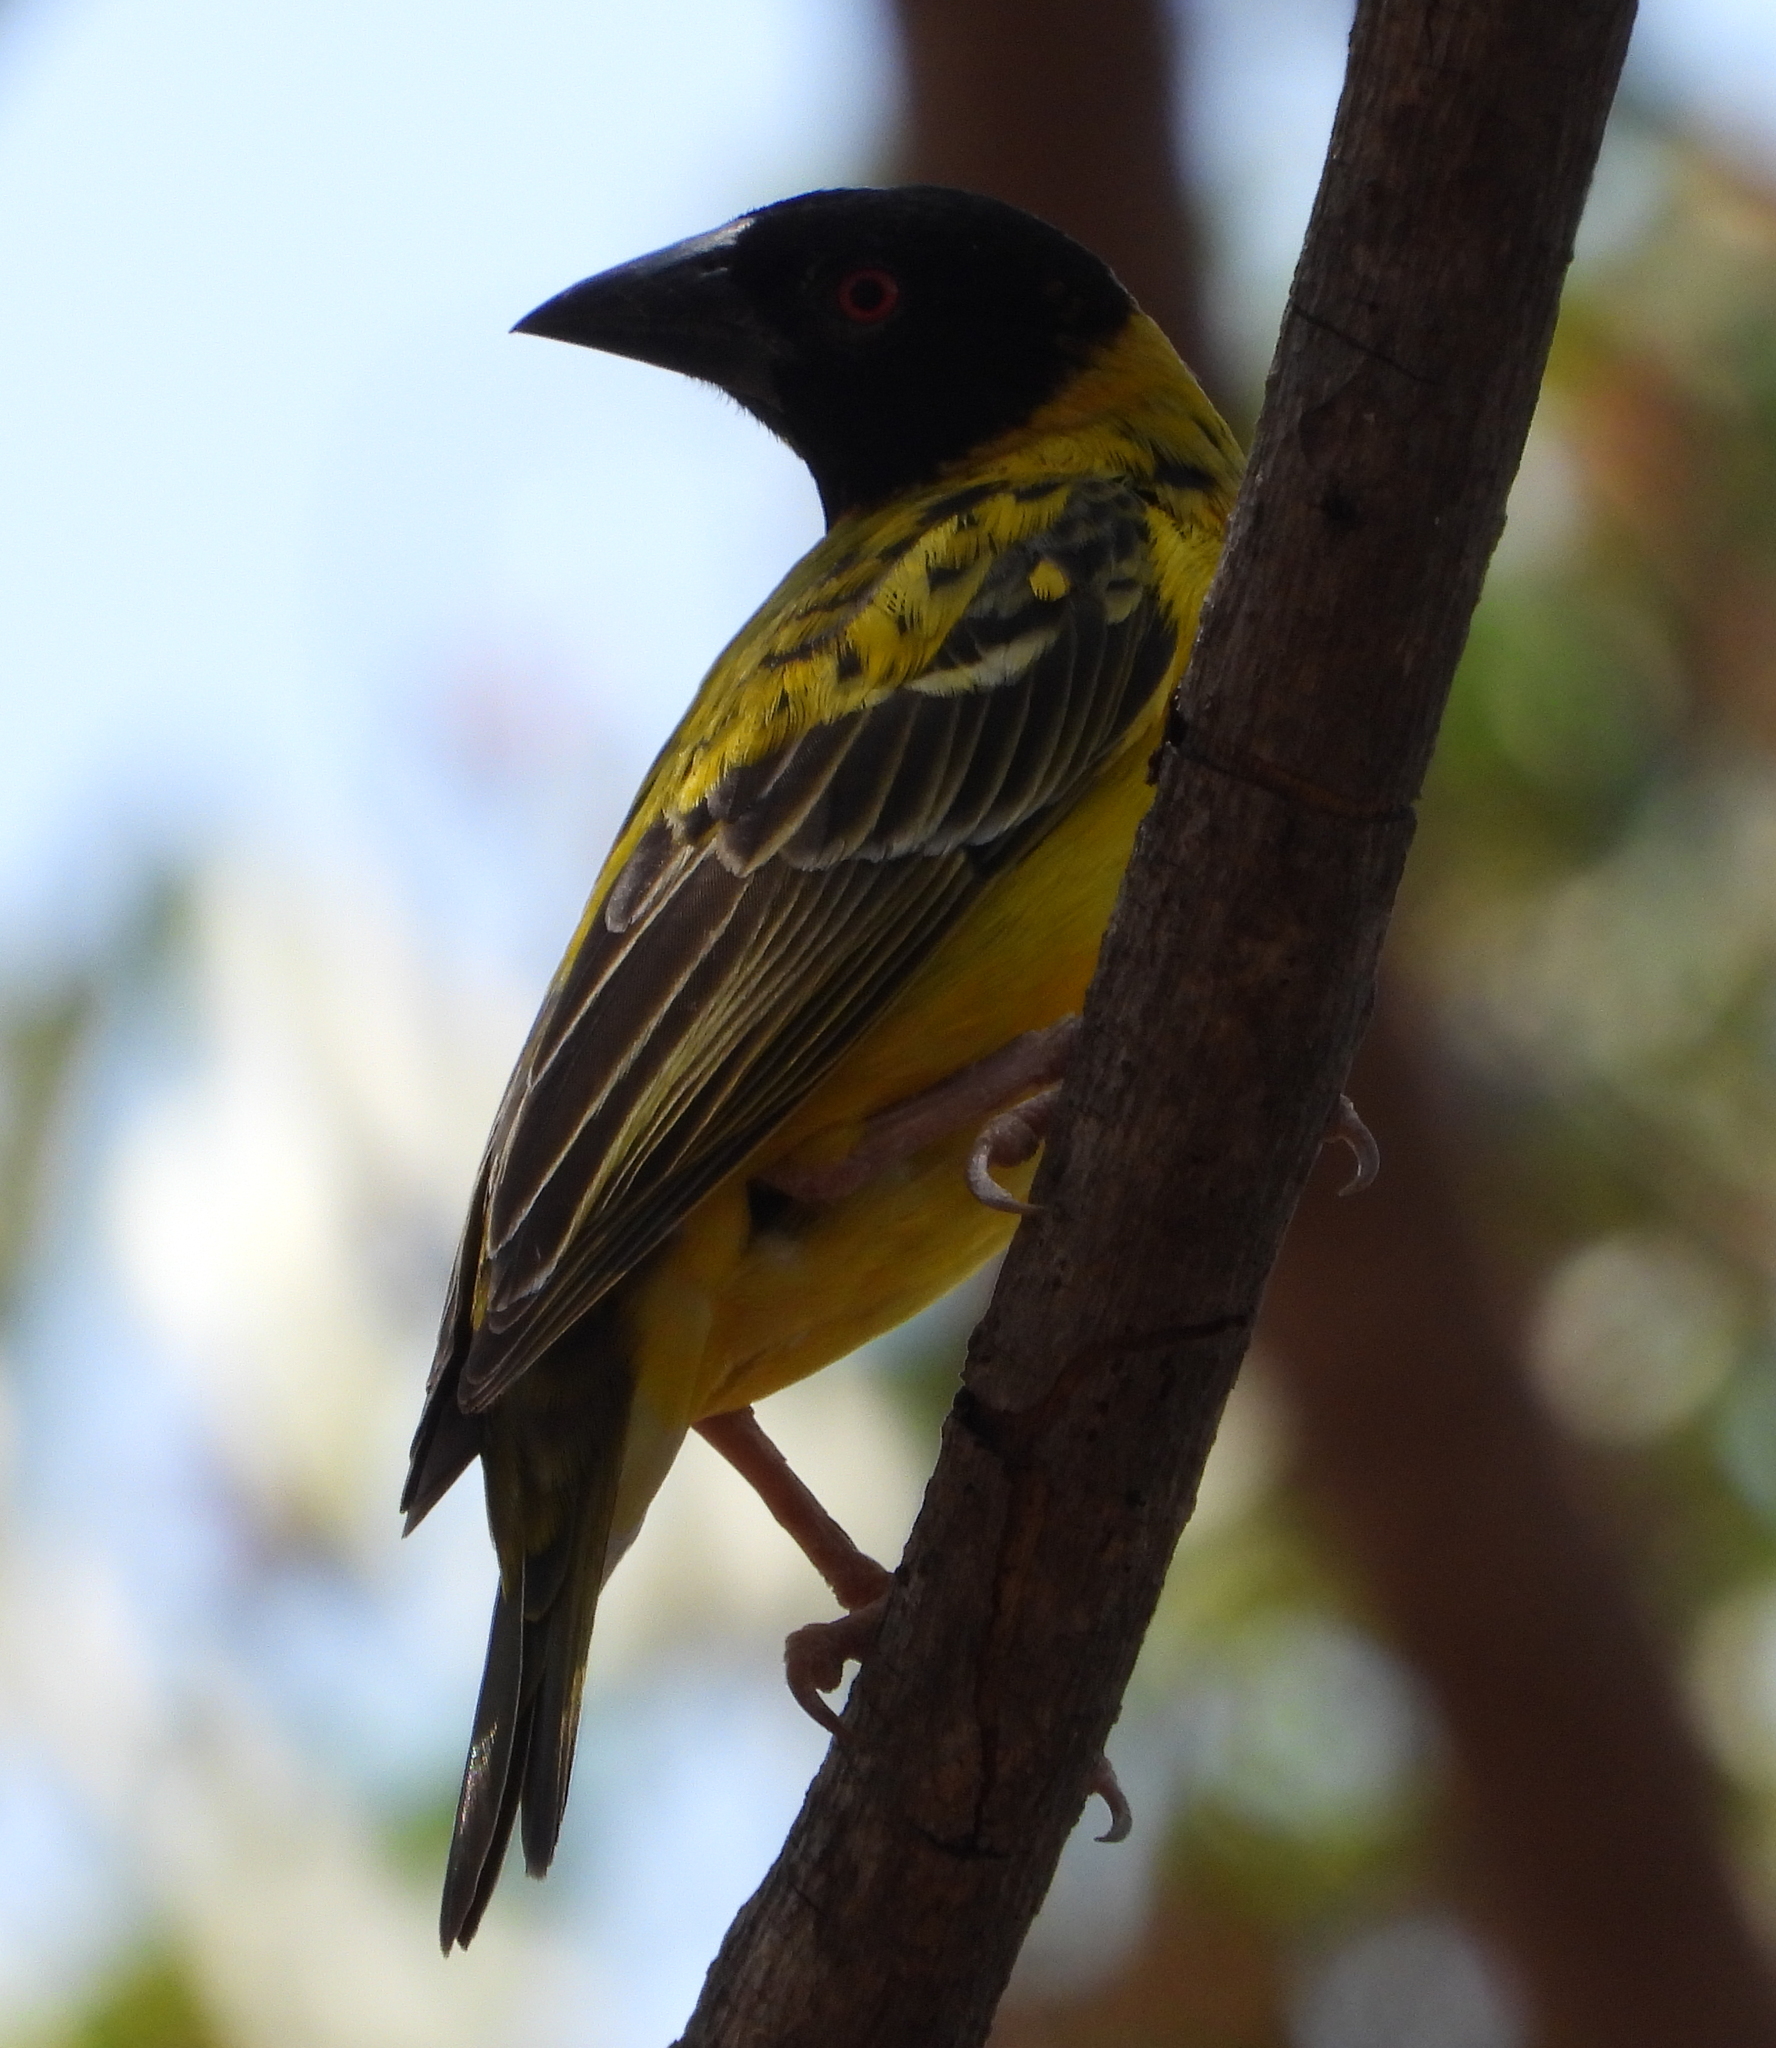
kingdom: Animalia
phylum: Chordata
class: Aves
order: Passeriformes
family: Ploceidae
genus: Ploceus
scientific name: Ploceus cucullatus
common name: Village weaver
